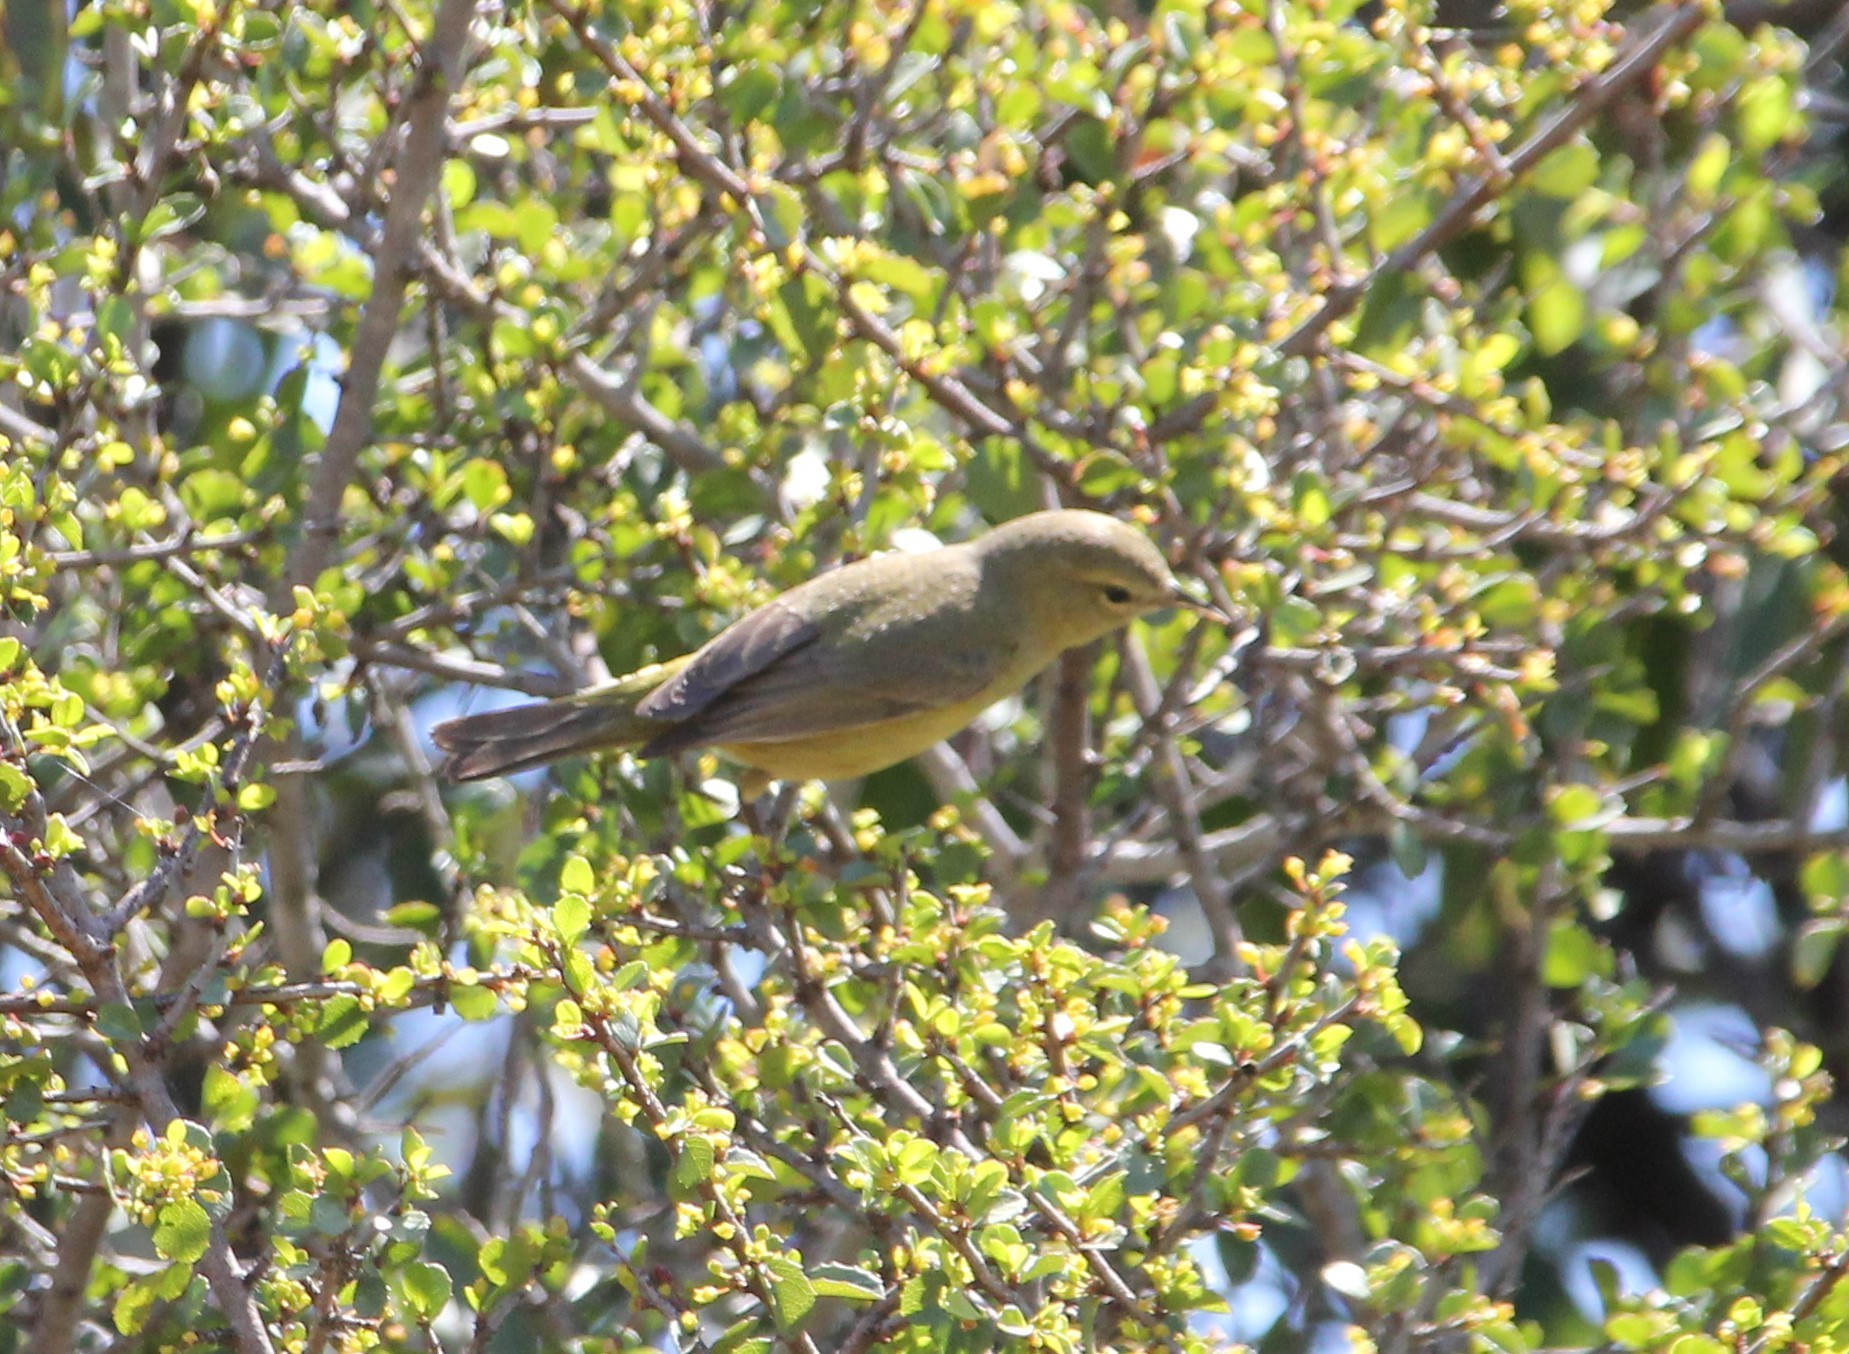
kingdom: Animalia
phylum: Chordata
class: Aves
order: Passeriformes
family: Parulidae
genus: Leiothlypis
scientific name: Leiothlypis celata
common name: Orange-crowned warbler
